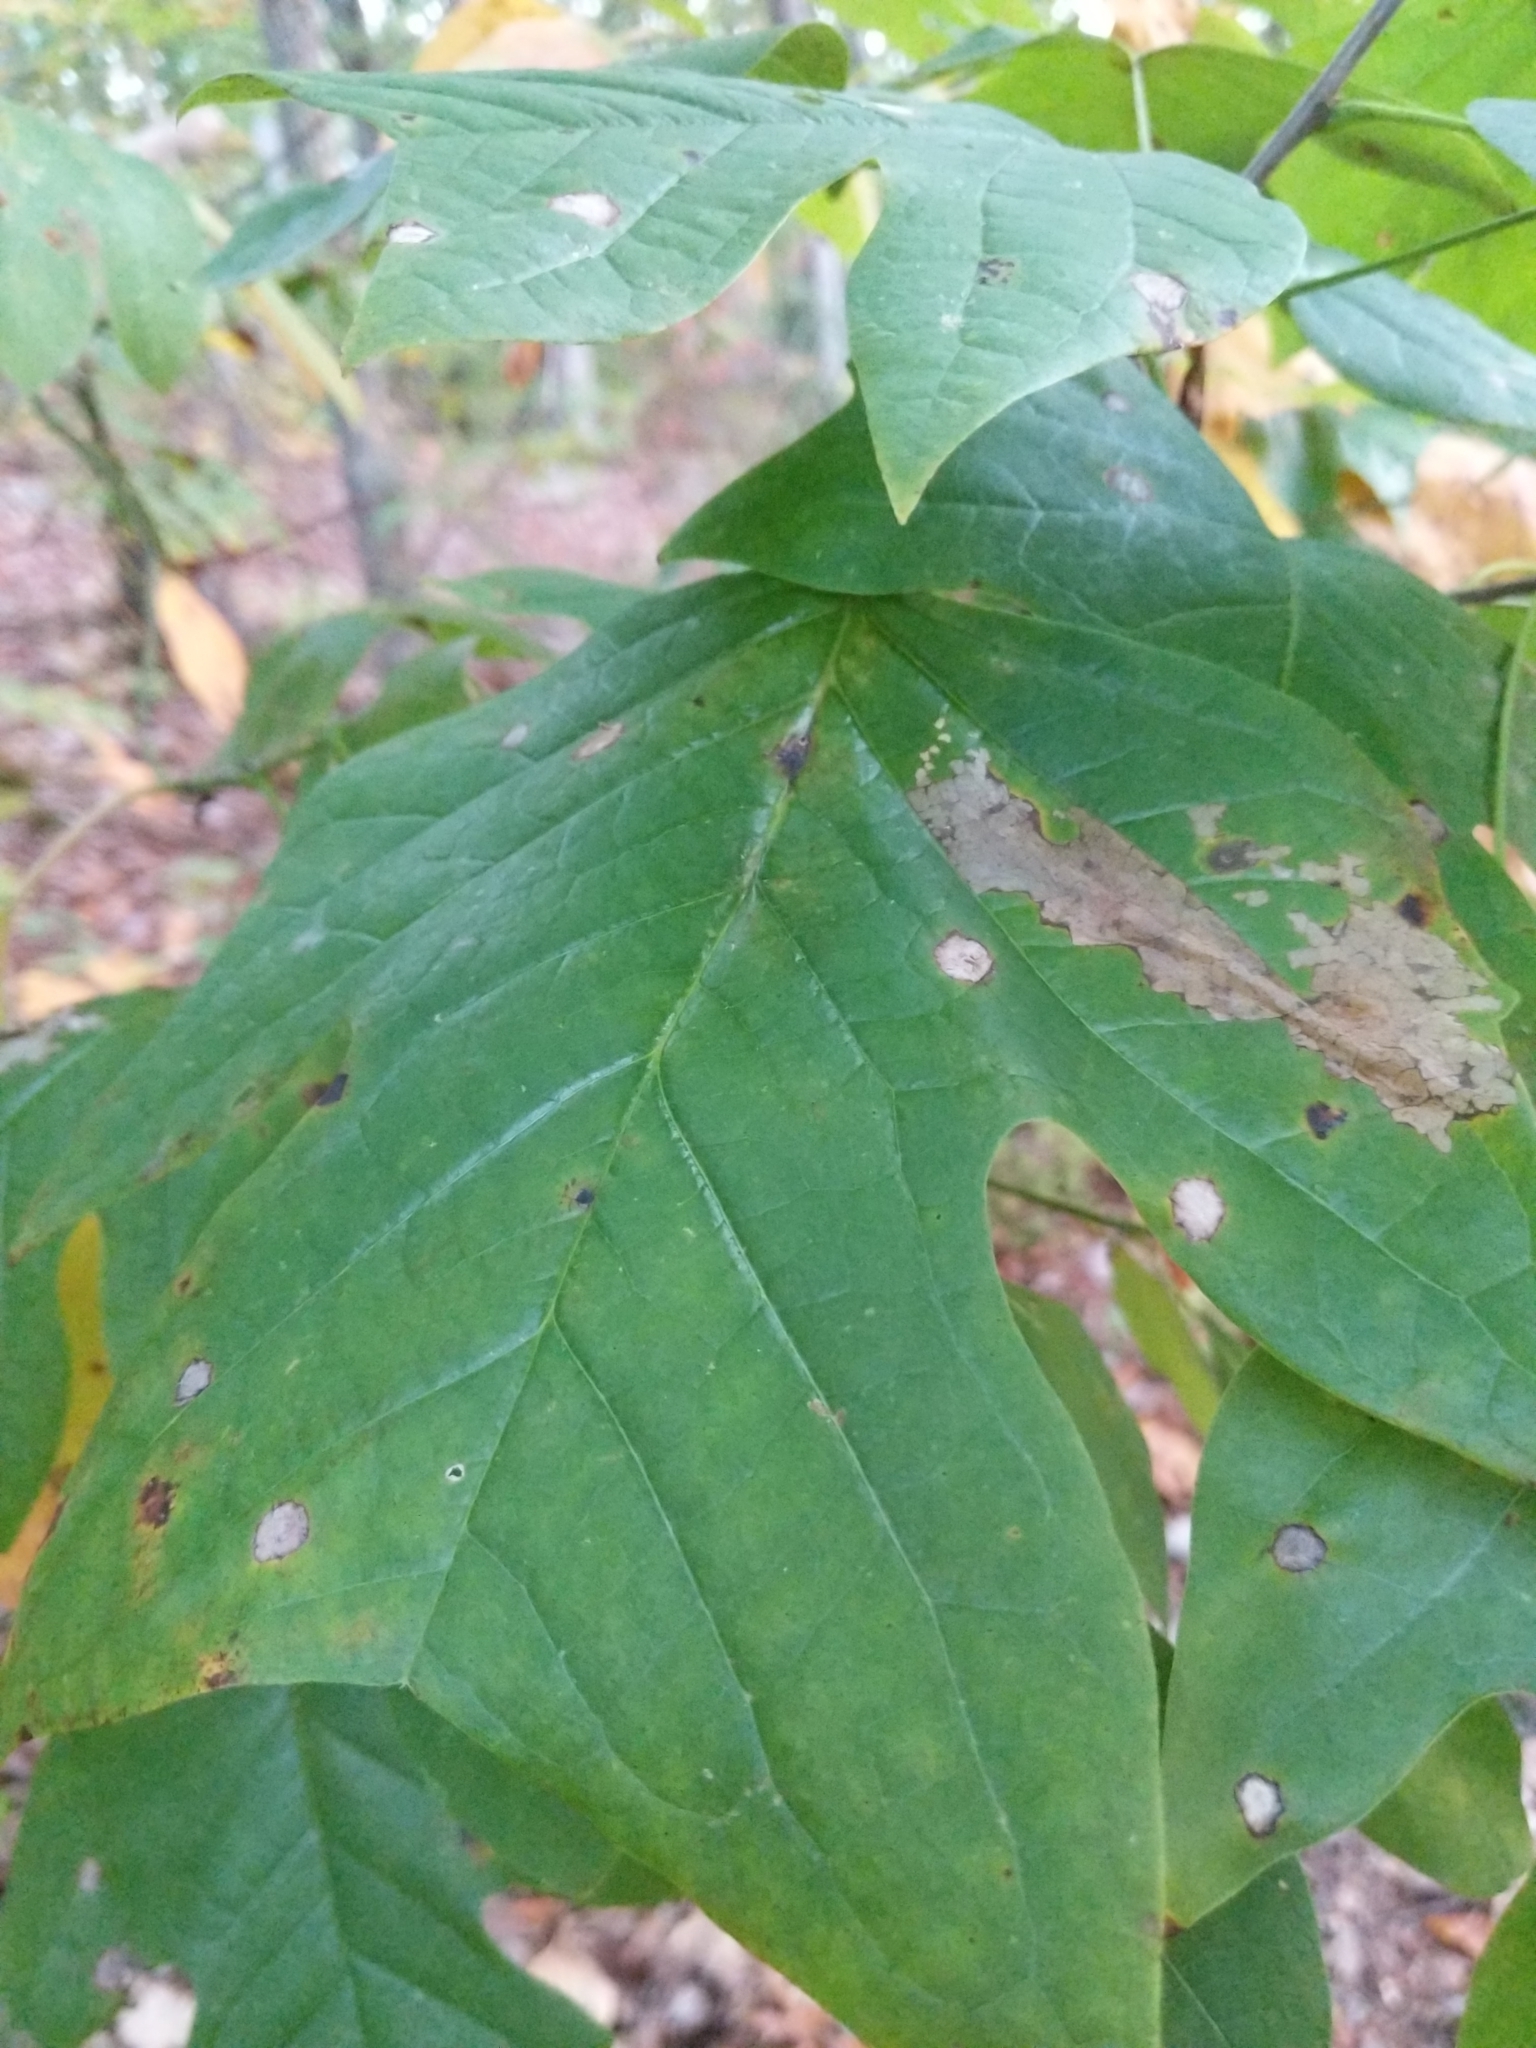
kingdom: Plantae
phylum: Tracheophyta
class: Magnoliopsida
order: Magnoliales
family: Magnoliaceae
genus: Liriodendron
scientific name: Liriodendron tulipifera
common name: Tulip tree
